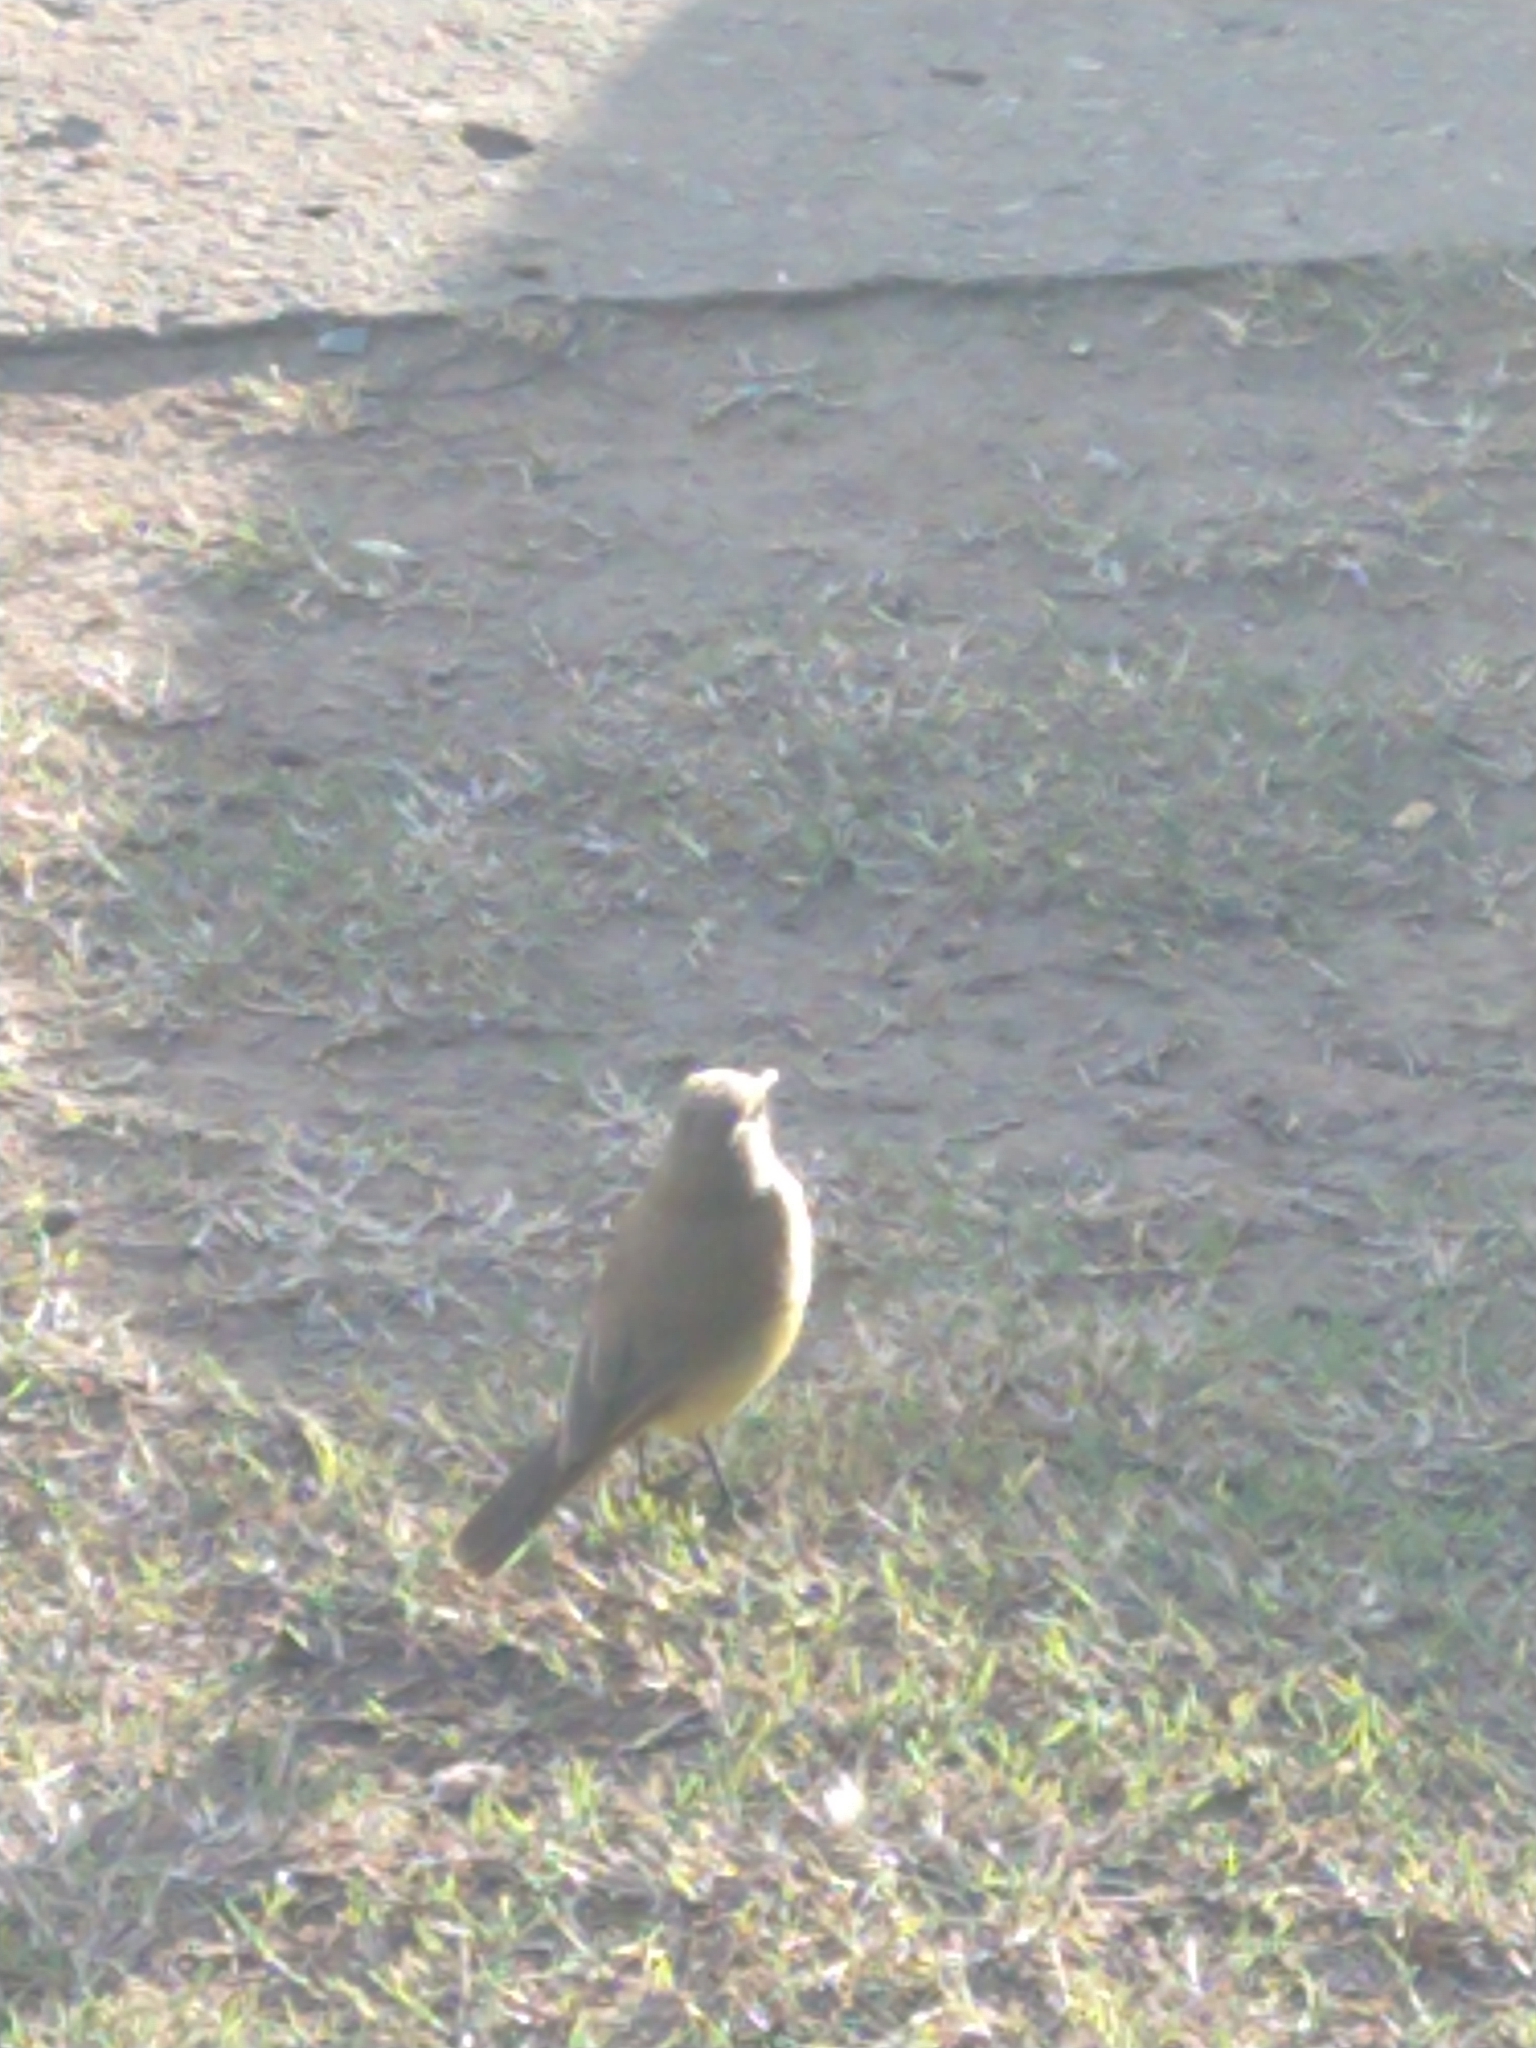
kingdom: Animalia
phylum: Chordata
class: Aves
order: Passeriformes
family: Tyrannidae
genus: Machetornis
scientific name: Machetornis rixosa
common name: Cattle tyrant
